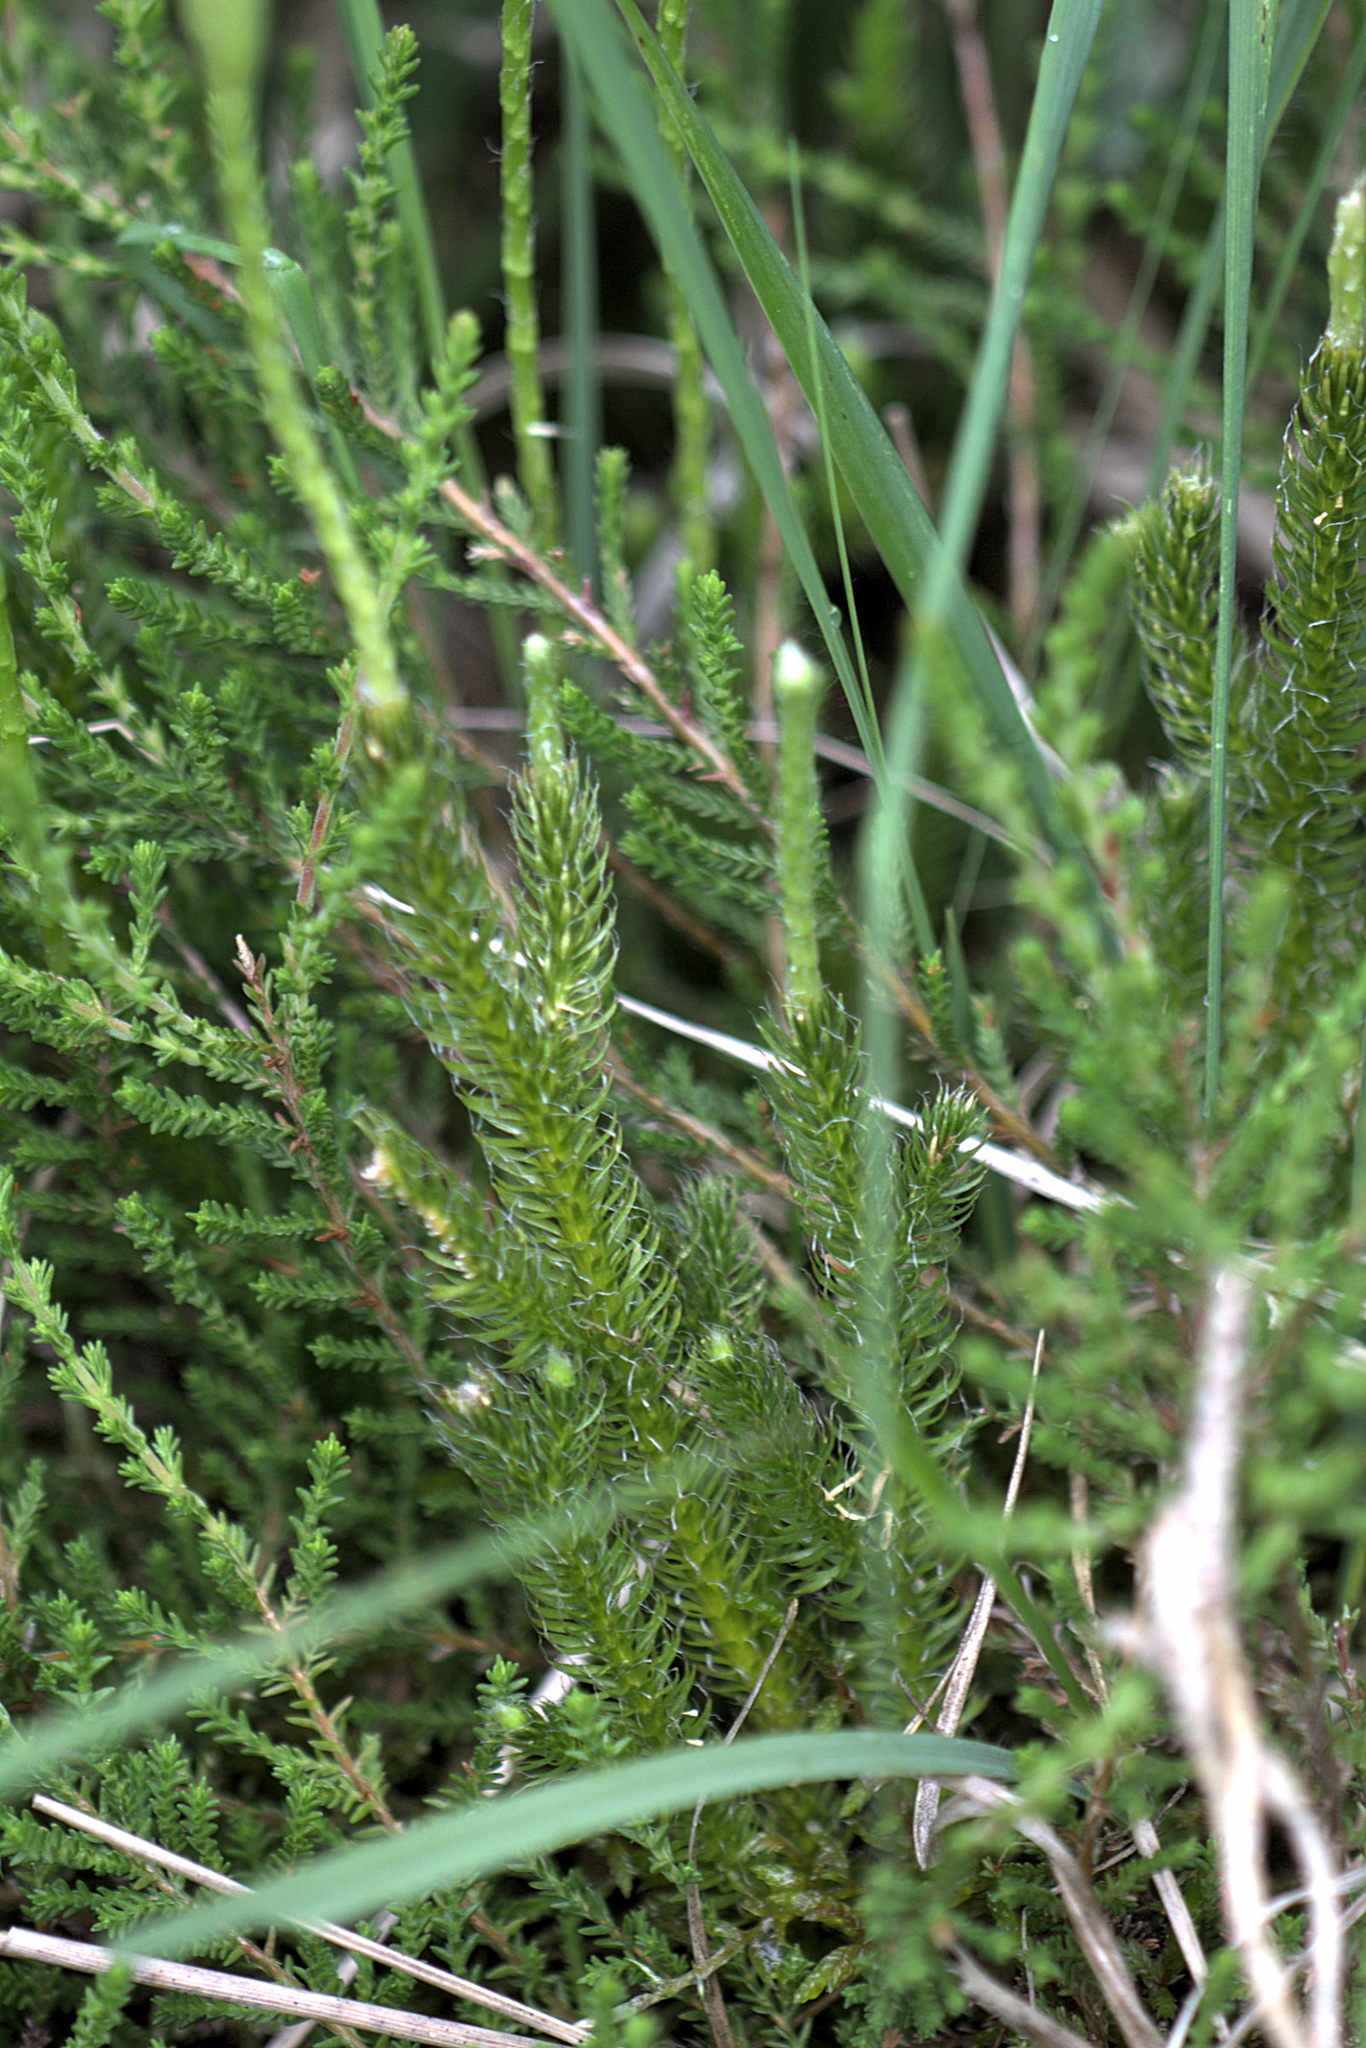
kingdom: Plantae
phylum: Tracheophyta
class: Lycopodiopsida
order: Lycopodiales
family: Lycopodiaceae
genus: Lycopodium
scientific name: Lycopodium clavatum
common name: Stag's-horn clubmoss
